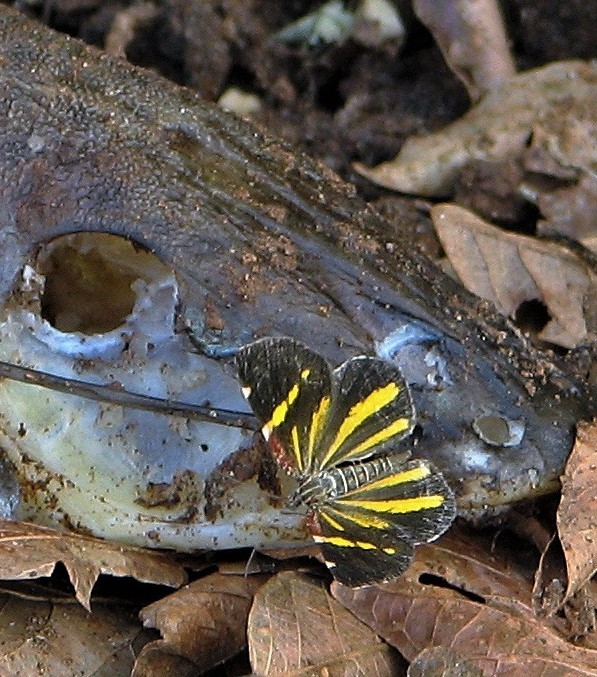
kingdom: Animalia
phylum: Arthropoda
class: Insecta
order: Lepidoptera
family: Geometridae
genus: Heterusia
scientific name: Heterusia quadruplicaria
